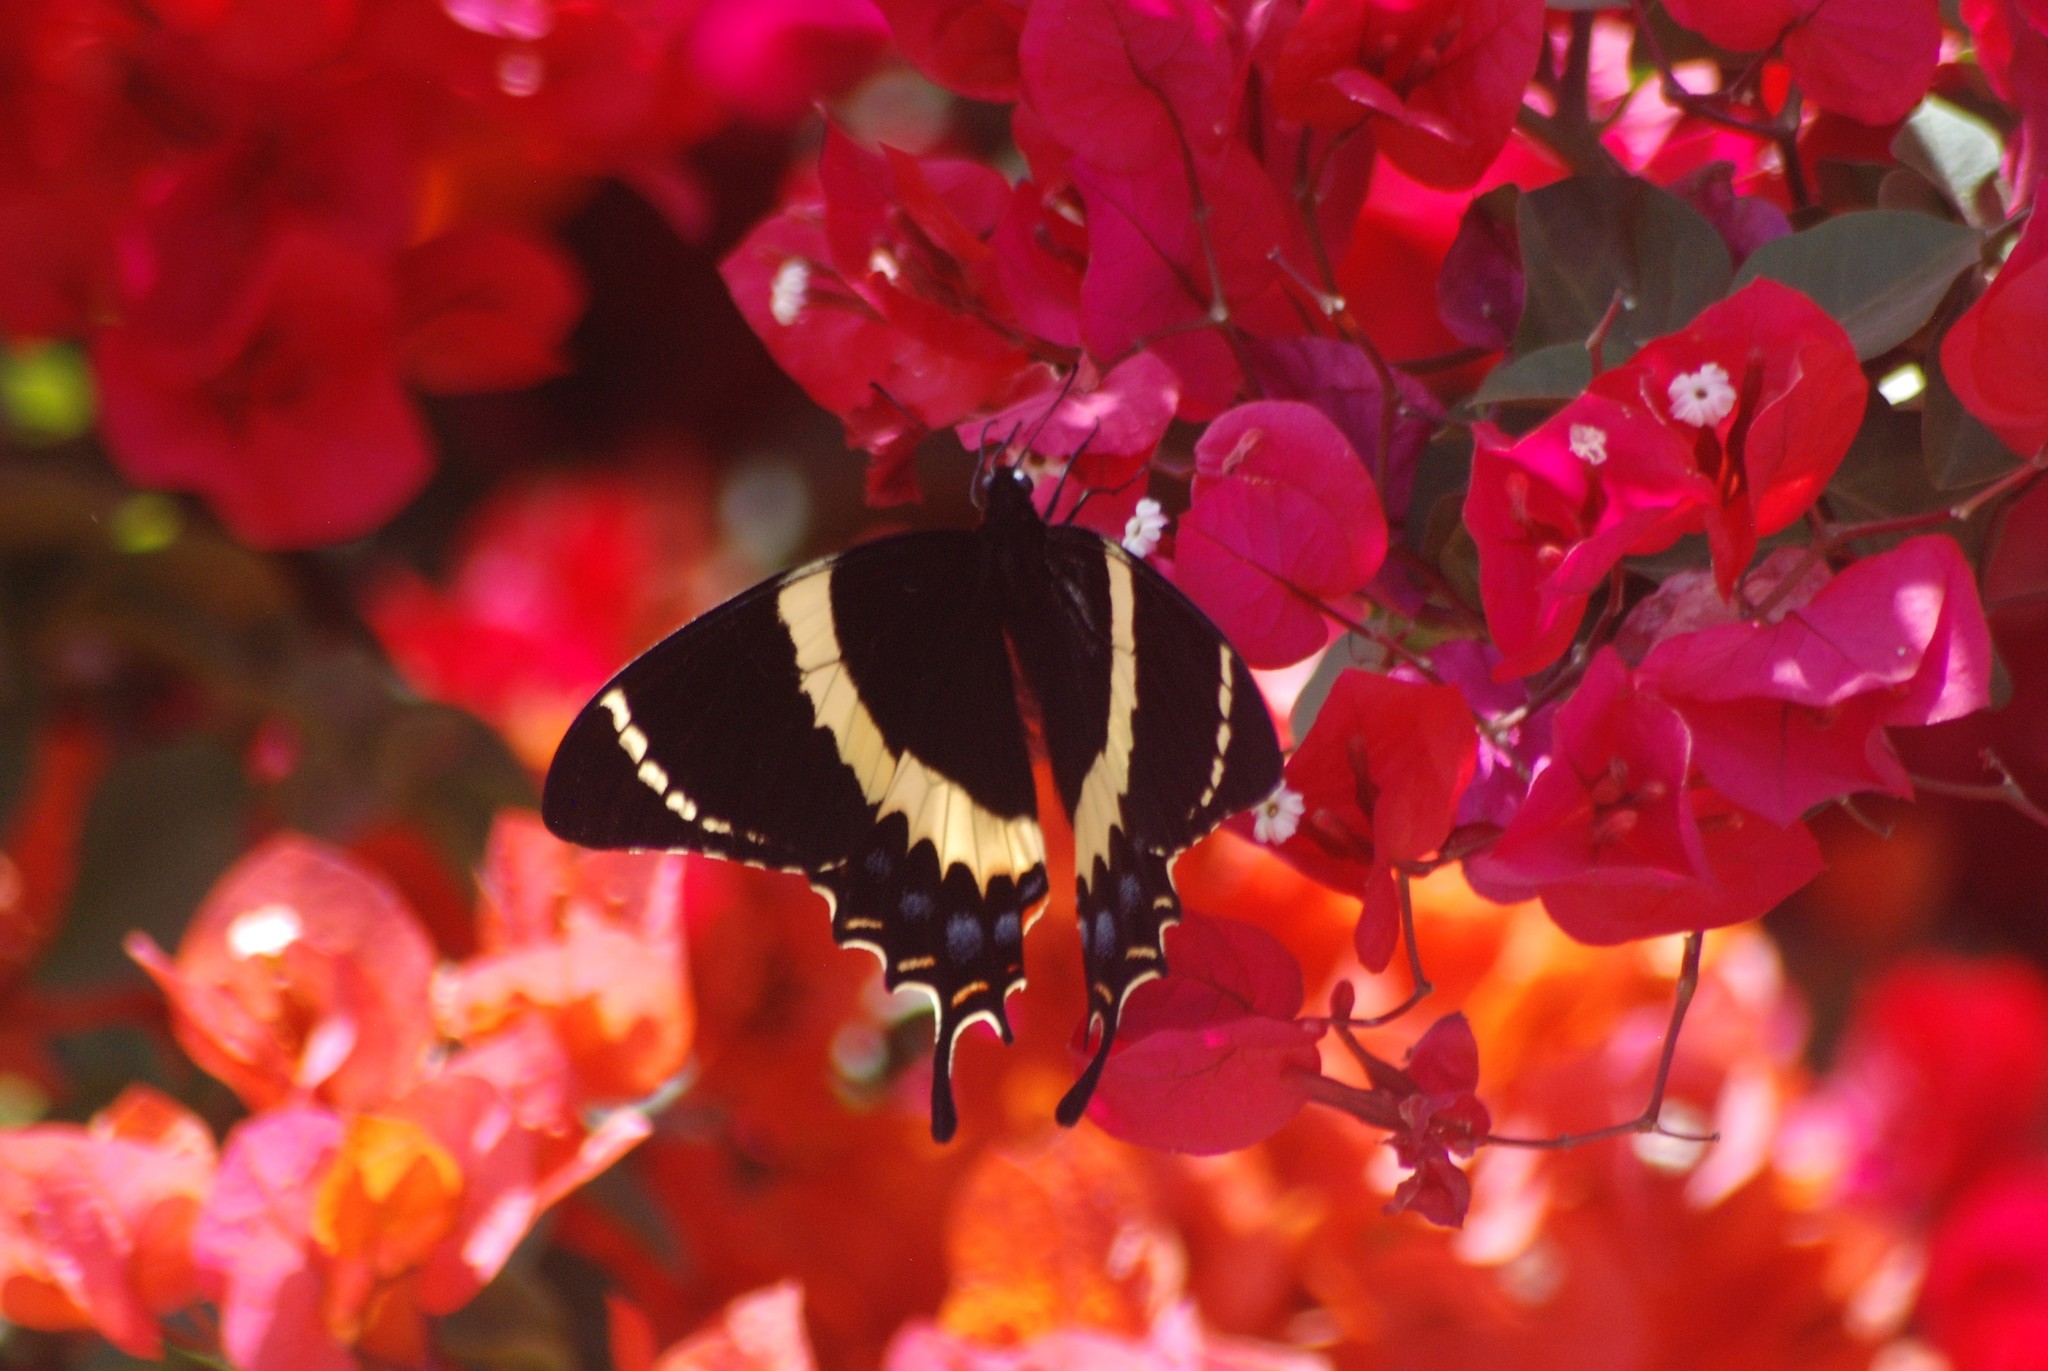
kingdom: Animalia
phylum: Arthropoda
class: Insecta
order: Lepidoptera
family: Papilionidae
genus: Papilio
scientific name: Papilio garamas
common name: Magnificent swallowtail
